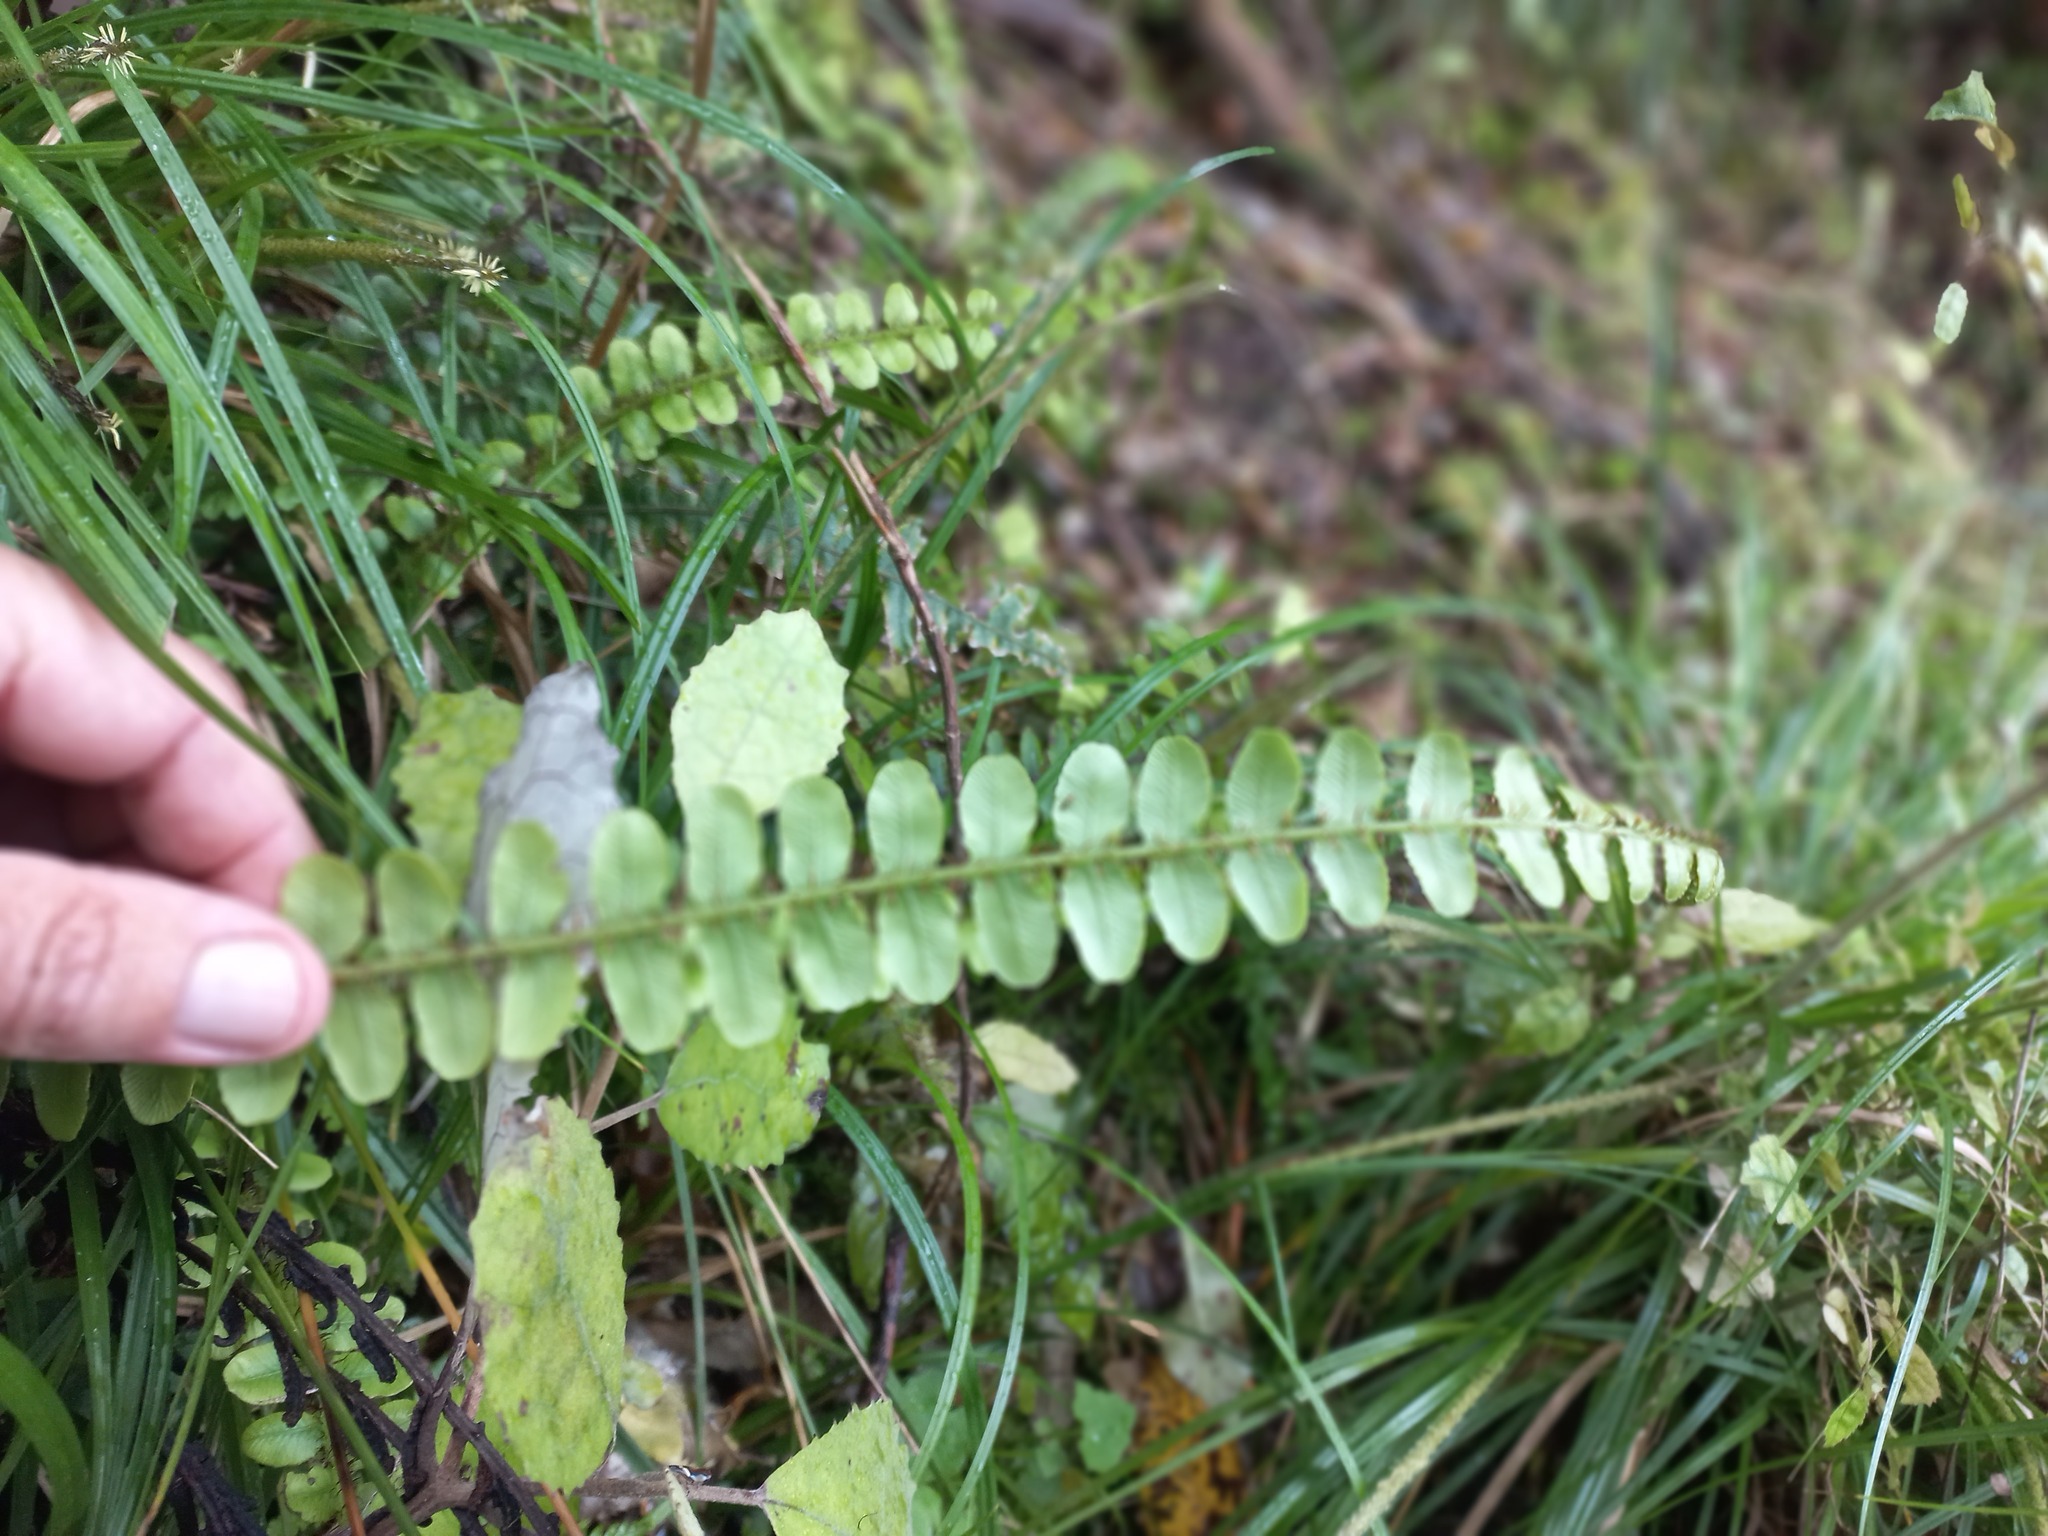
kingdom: Plantae
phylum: Tracheophyta
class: Polypodiopsida
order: Polypodiales
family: Blechnaceae
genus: Cranfillia
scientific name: Cranfillia fluviatilis
